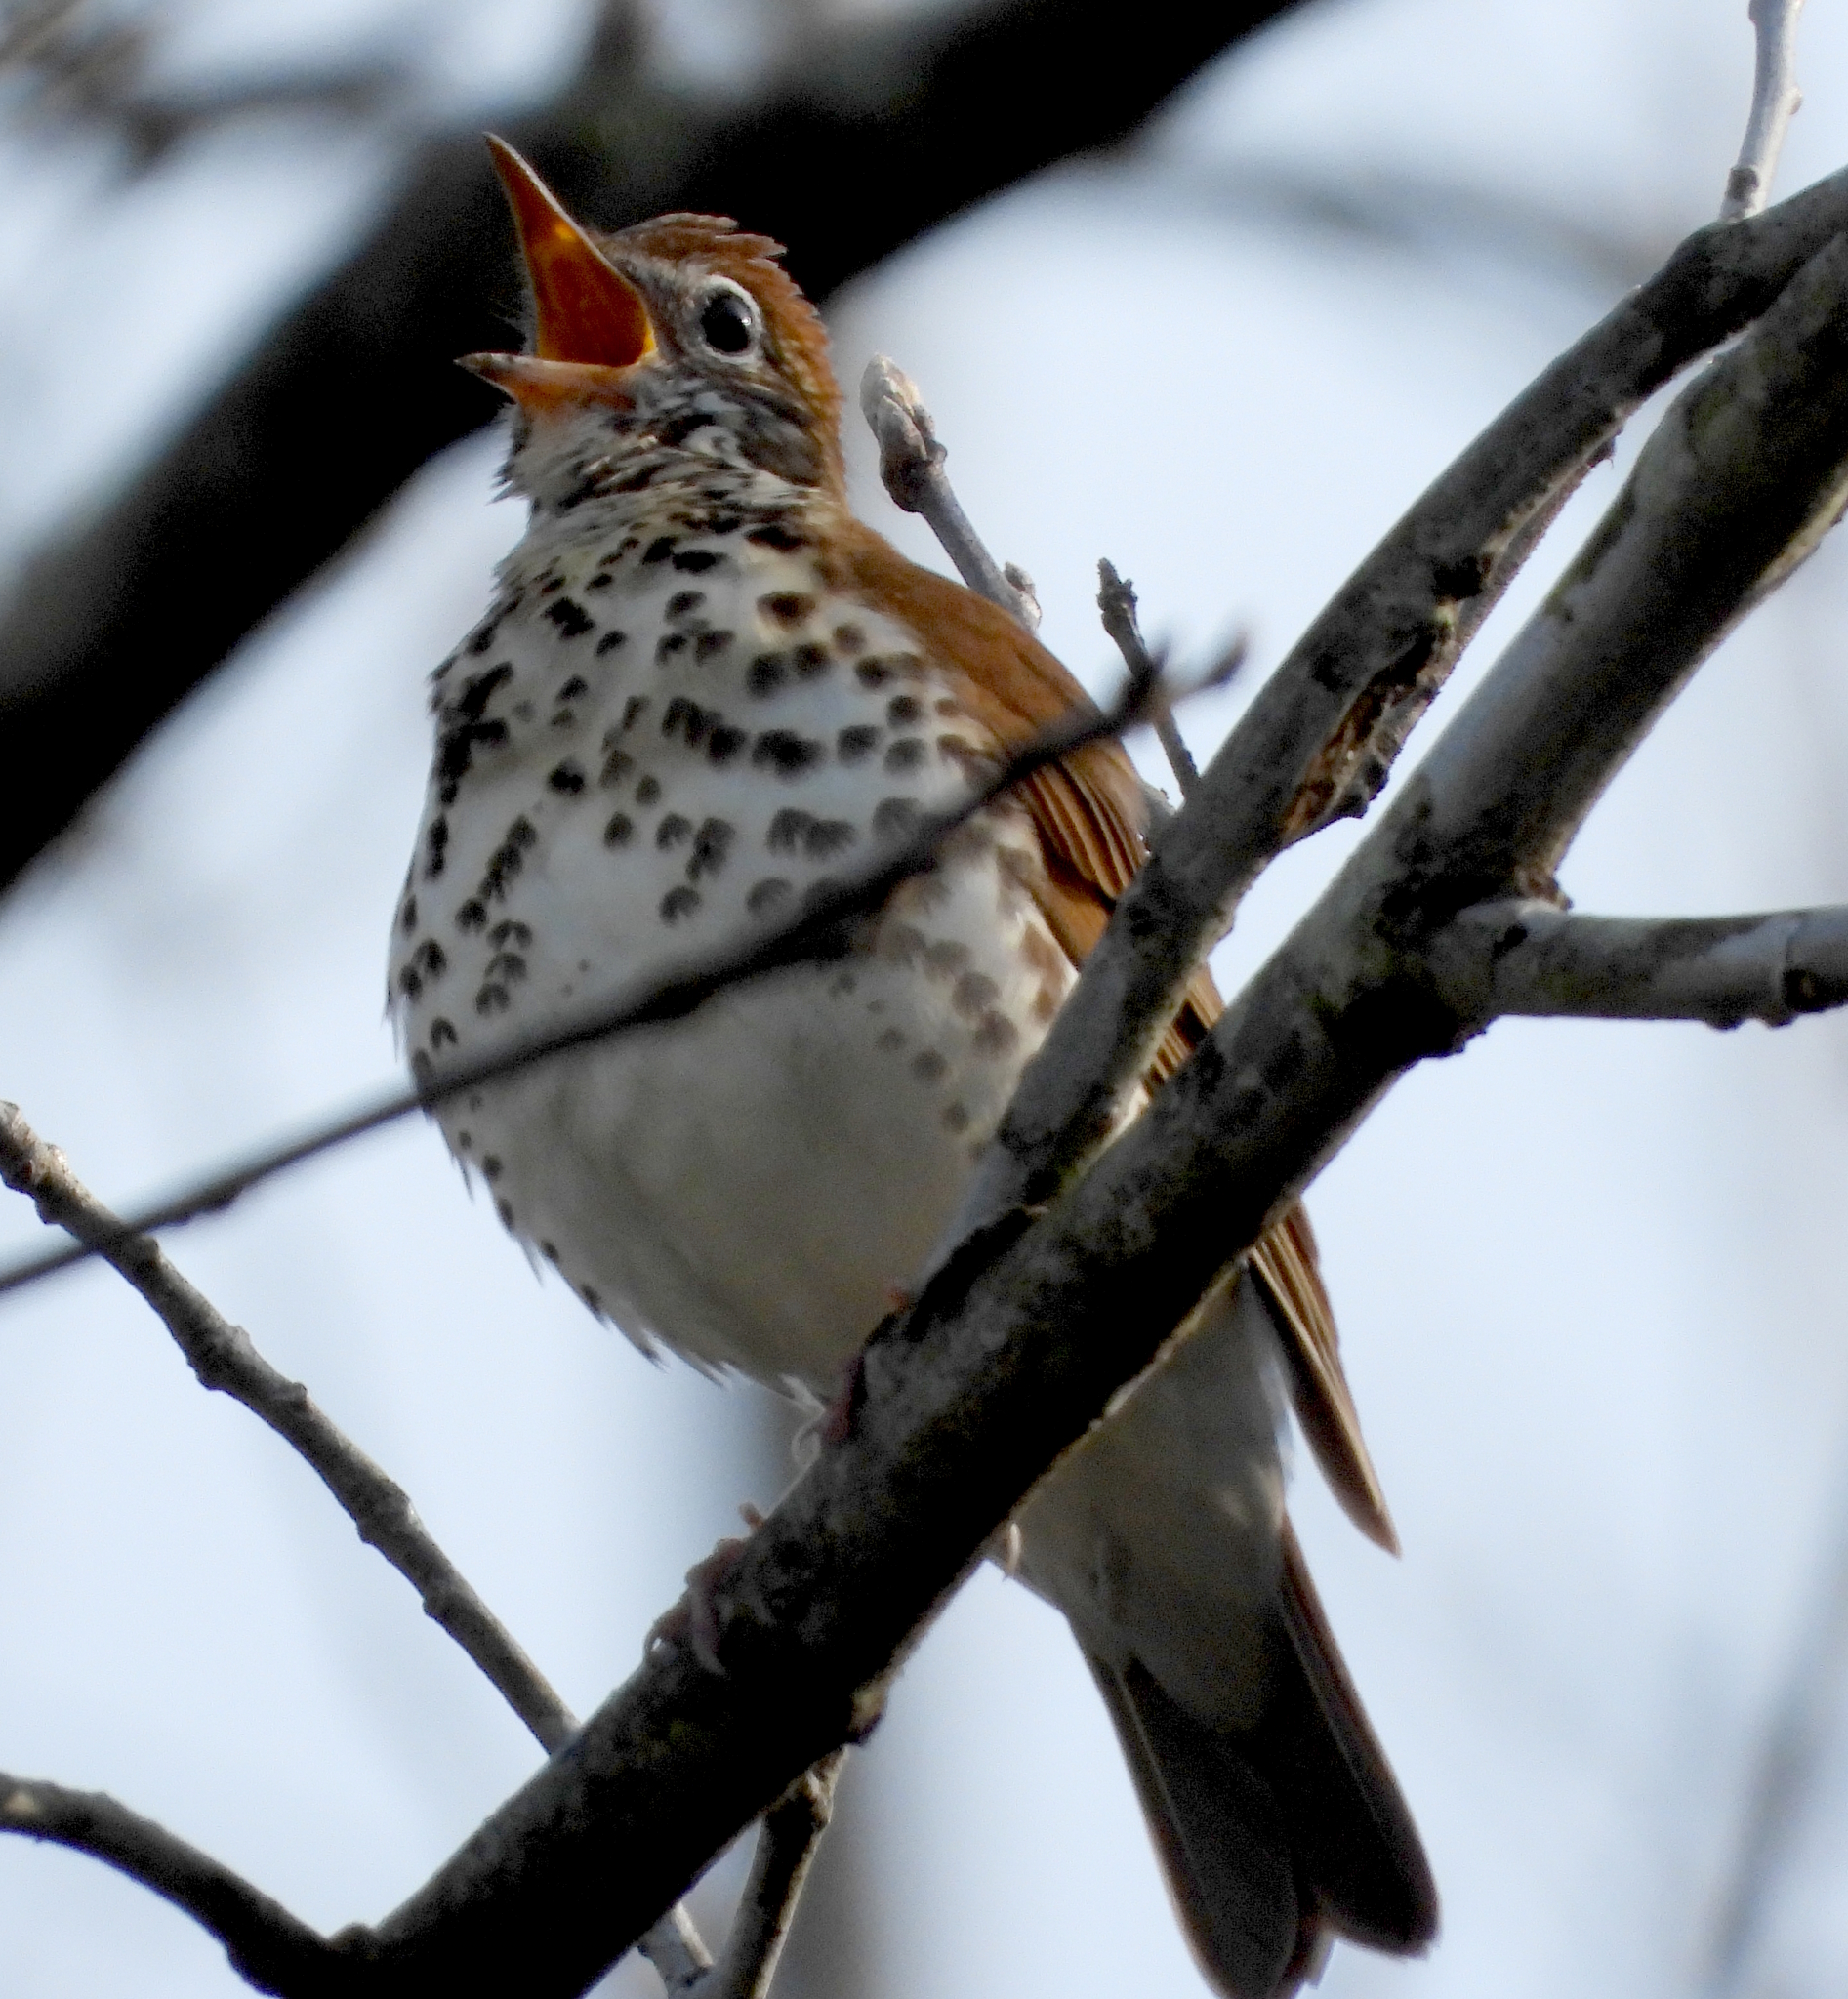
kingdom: Animalia
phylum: Chordata
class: Aves
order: Passeriformes
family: Turdidae
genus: Hylocichla
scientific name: Hylocichla mustelina
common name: Wood thrush
